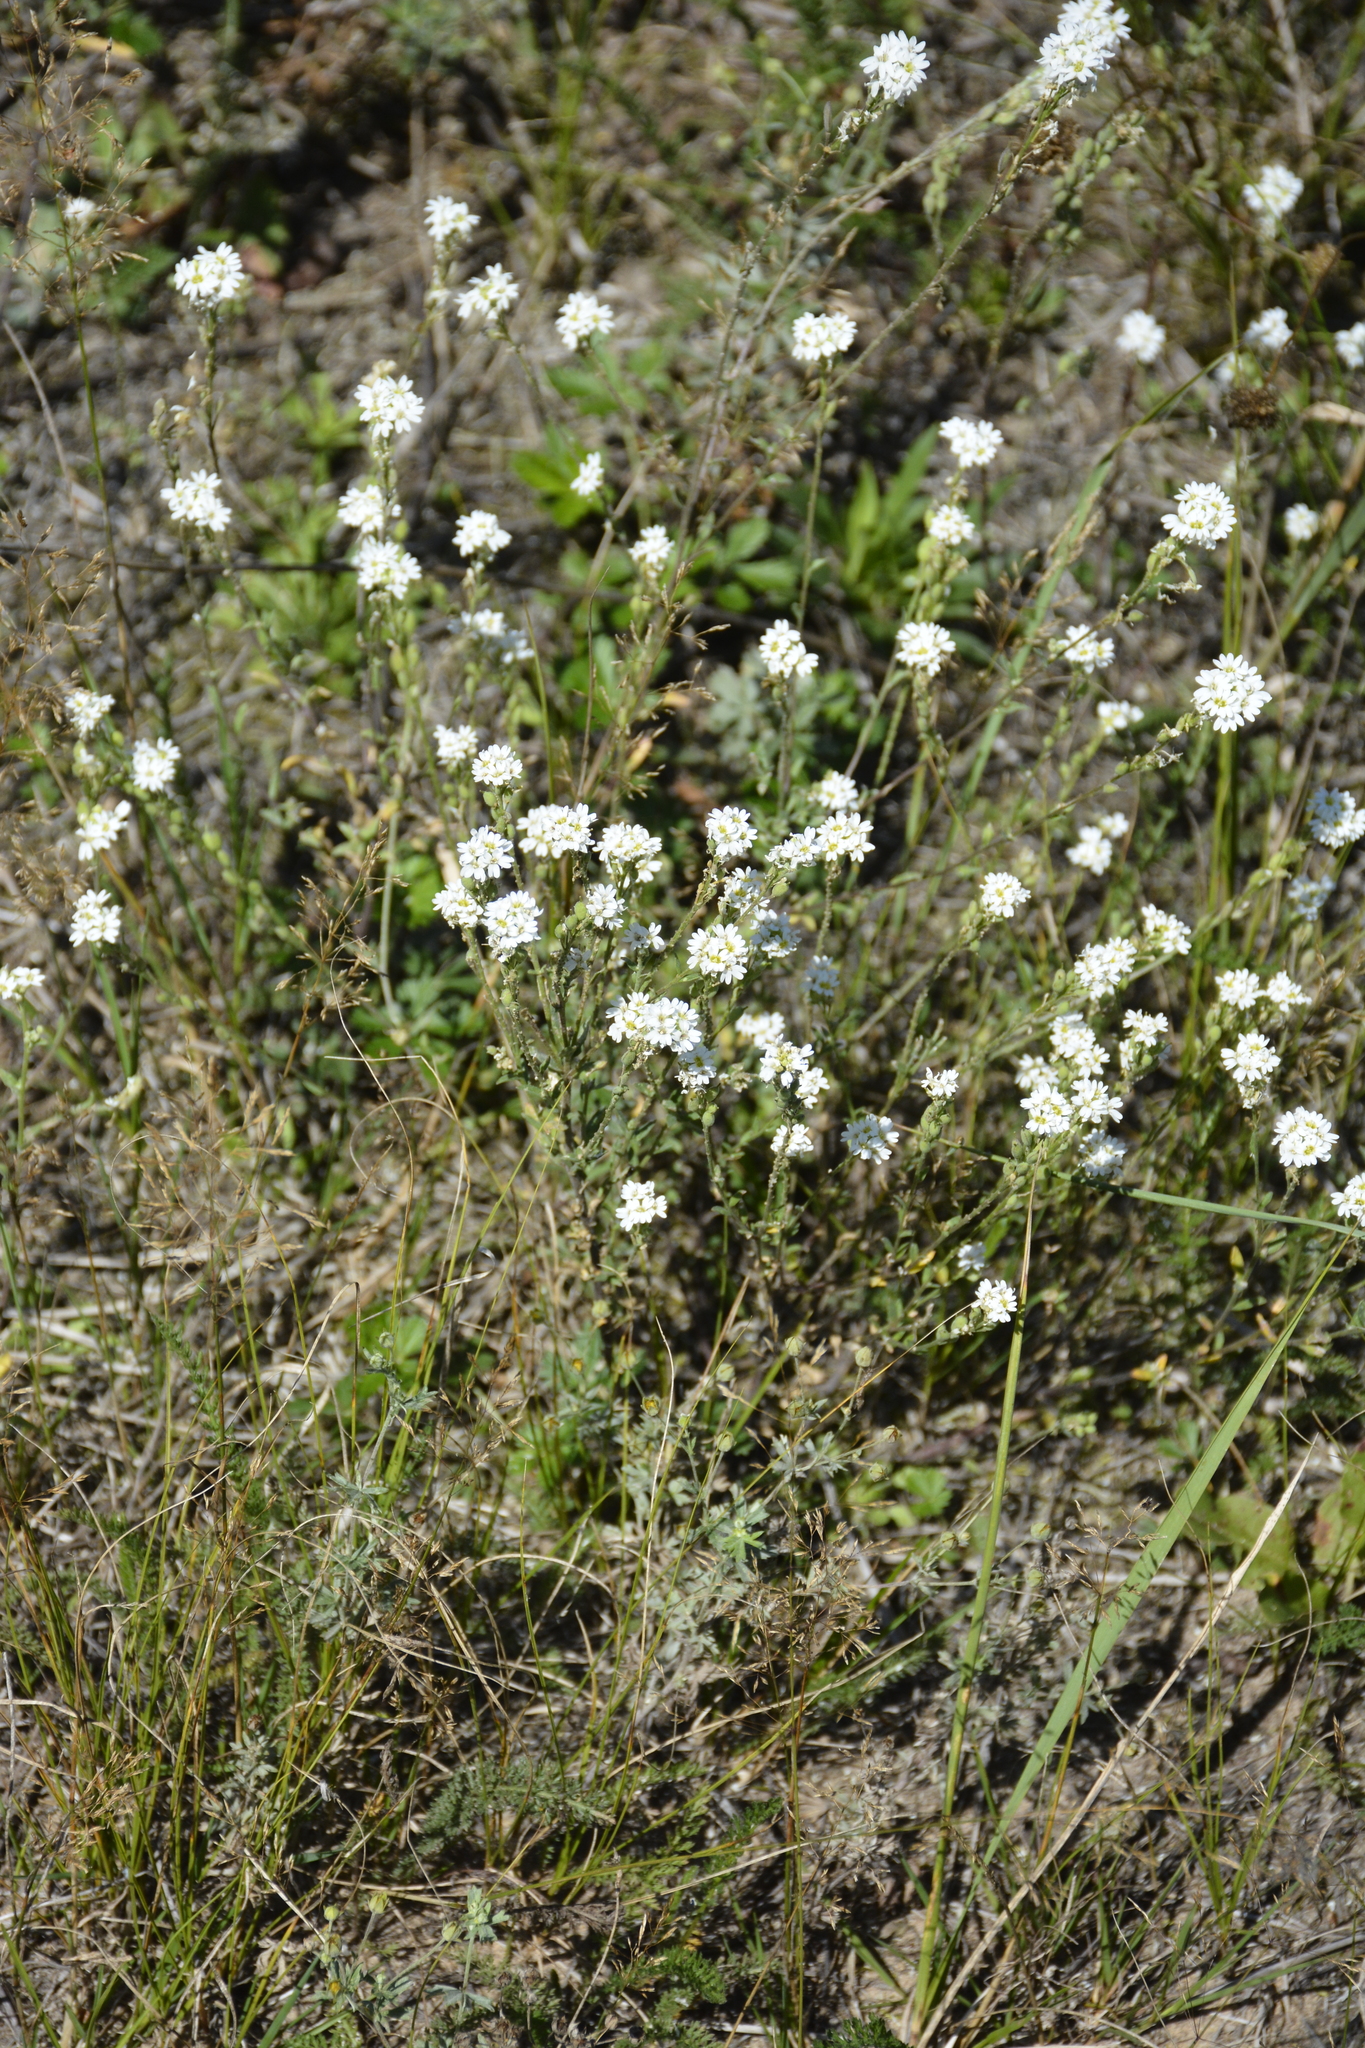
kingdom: Plantae
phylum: Tracheophyta
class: Magnoliopsida
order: Brassicales
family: Brassicaceae
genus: Berteroa
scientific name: Berteroa incana
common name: Hoary alison
